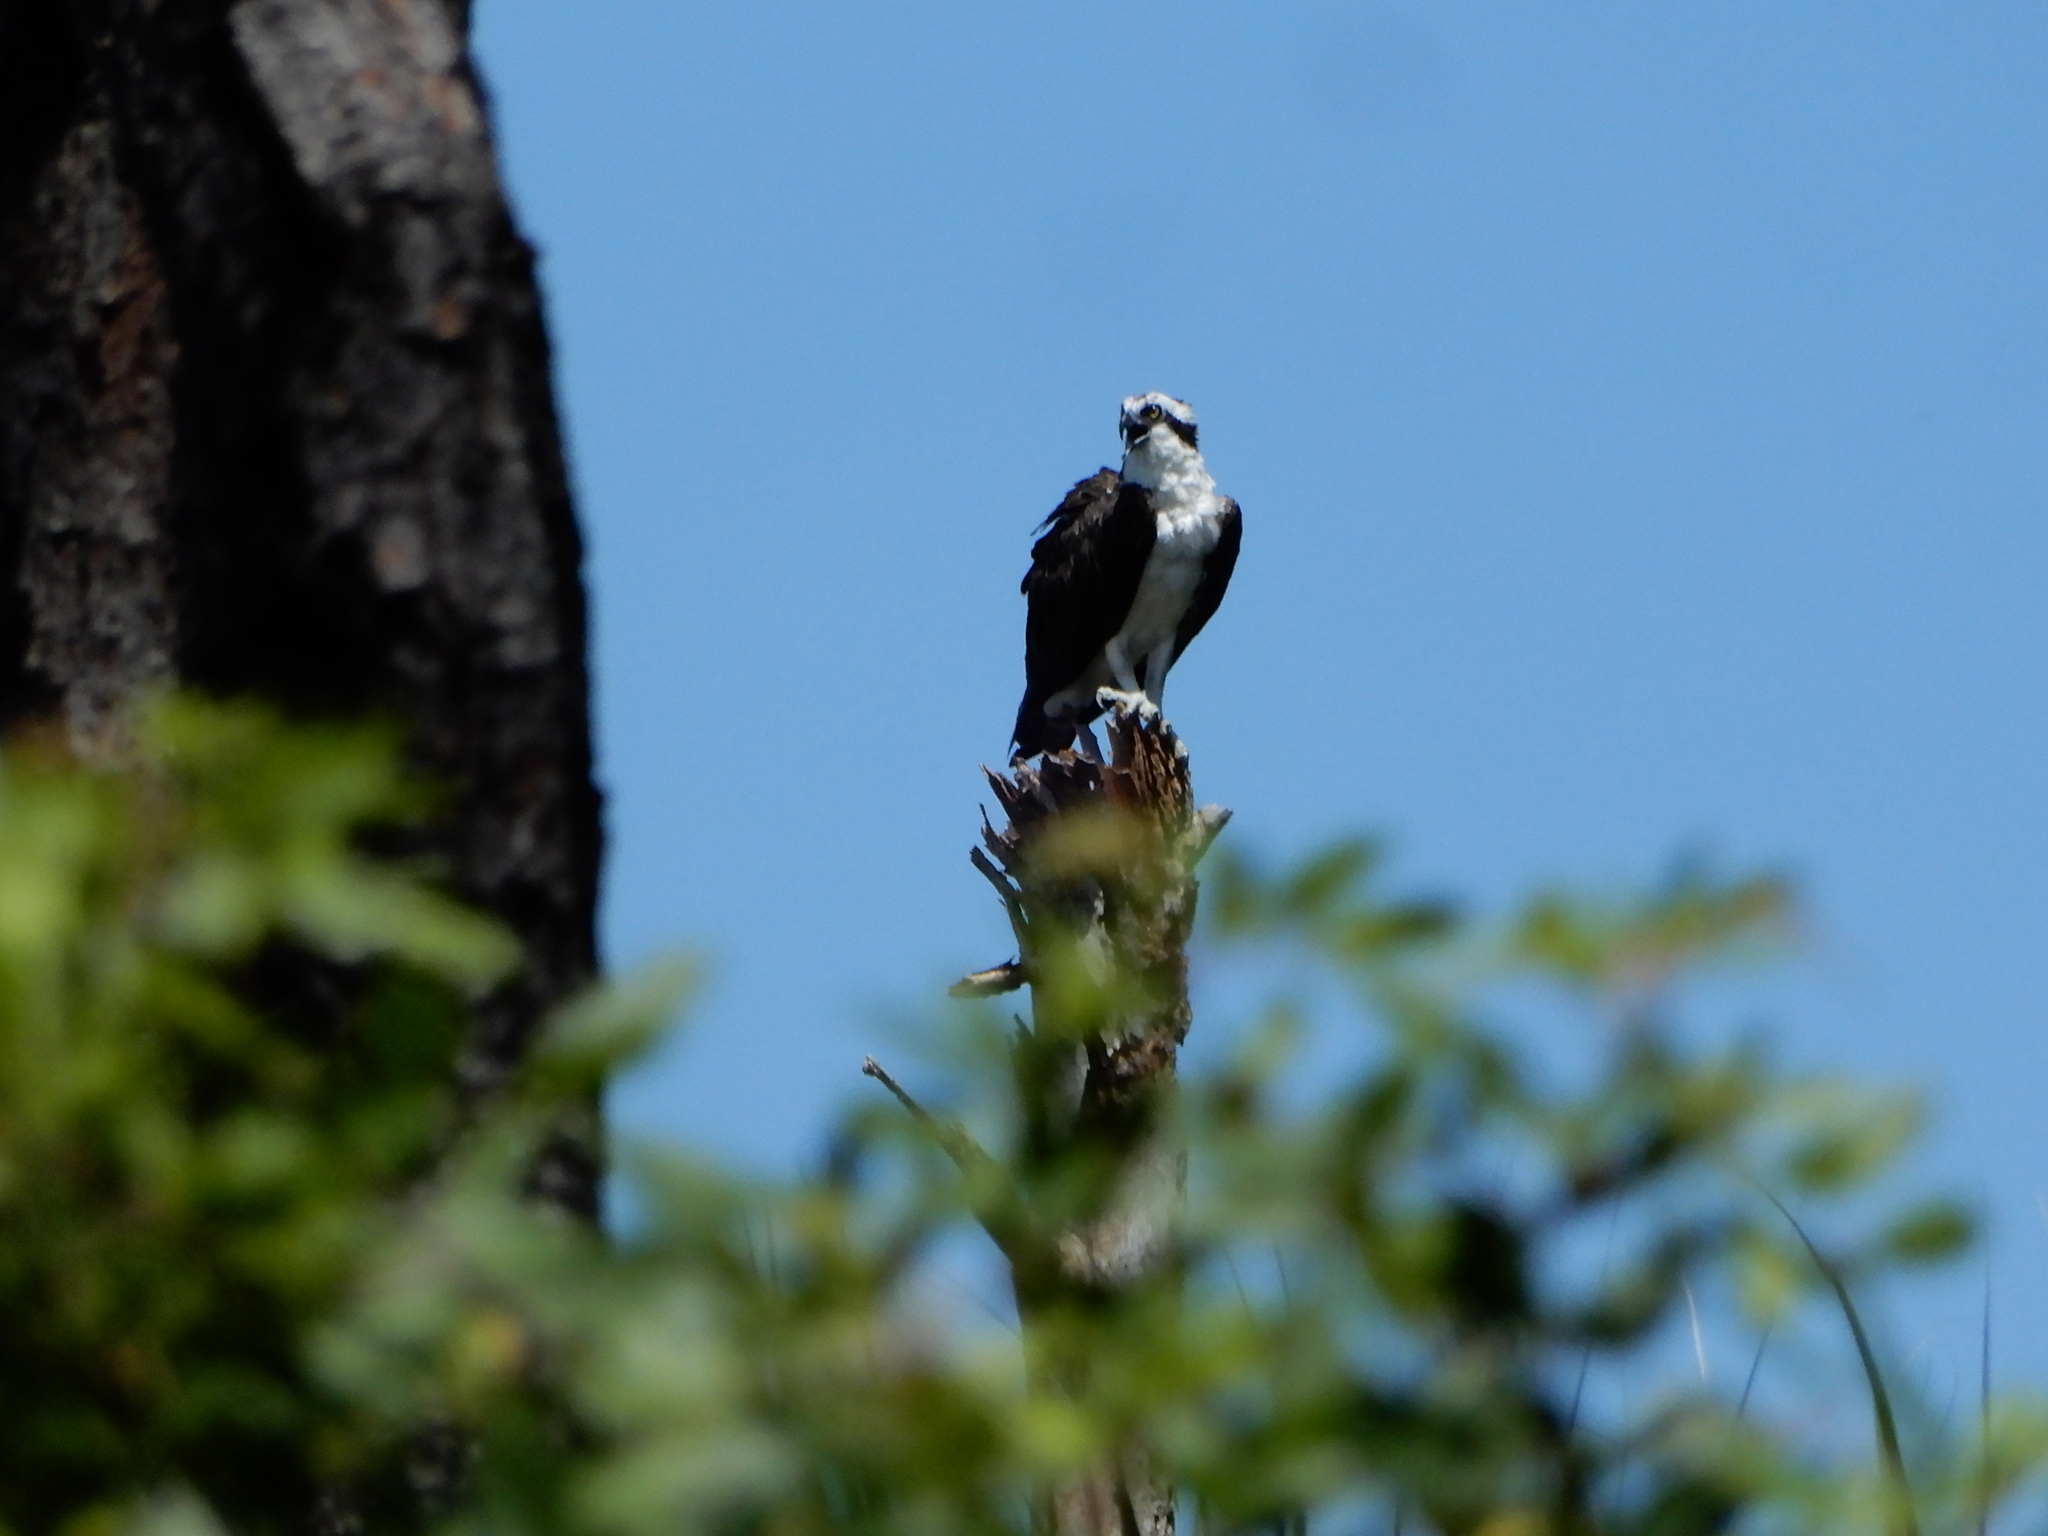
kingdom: Animalia
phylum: Chordata
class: Aves
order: Accipitriformes
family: Pandionidae
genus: Pandion
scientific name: Pandion haliaetus
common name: Osprey
